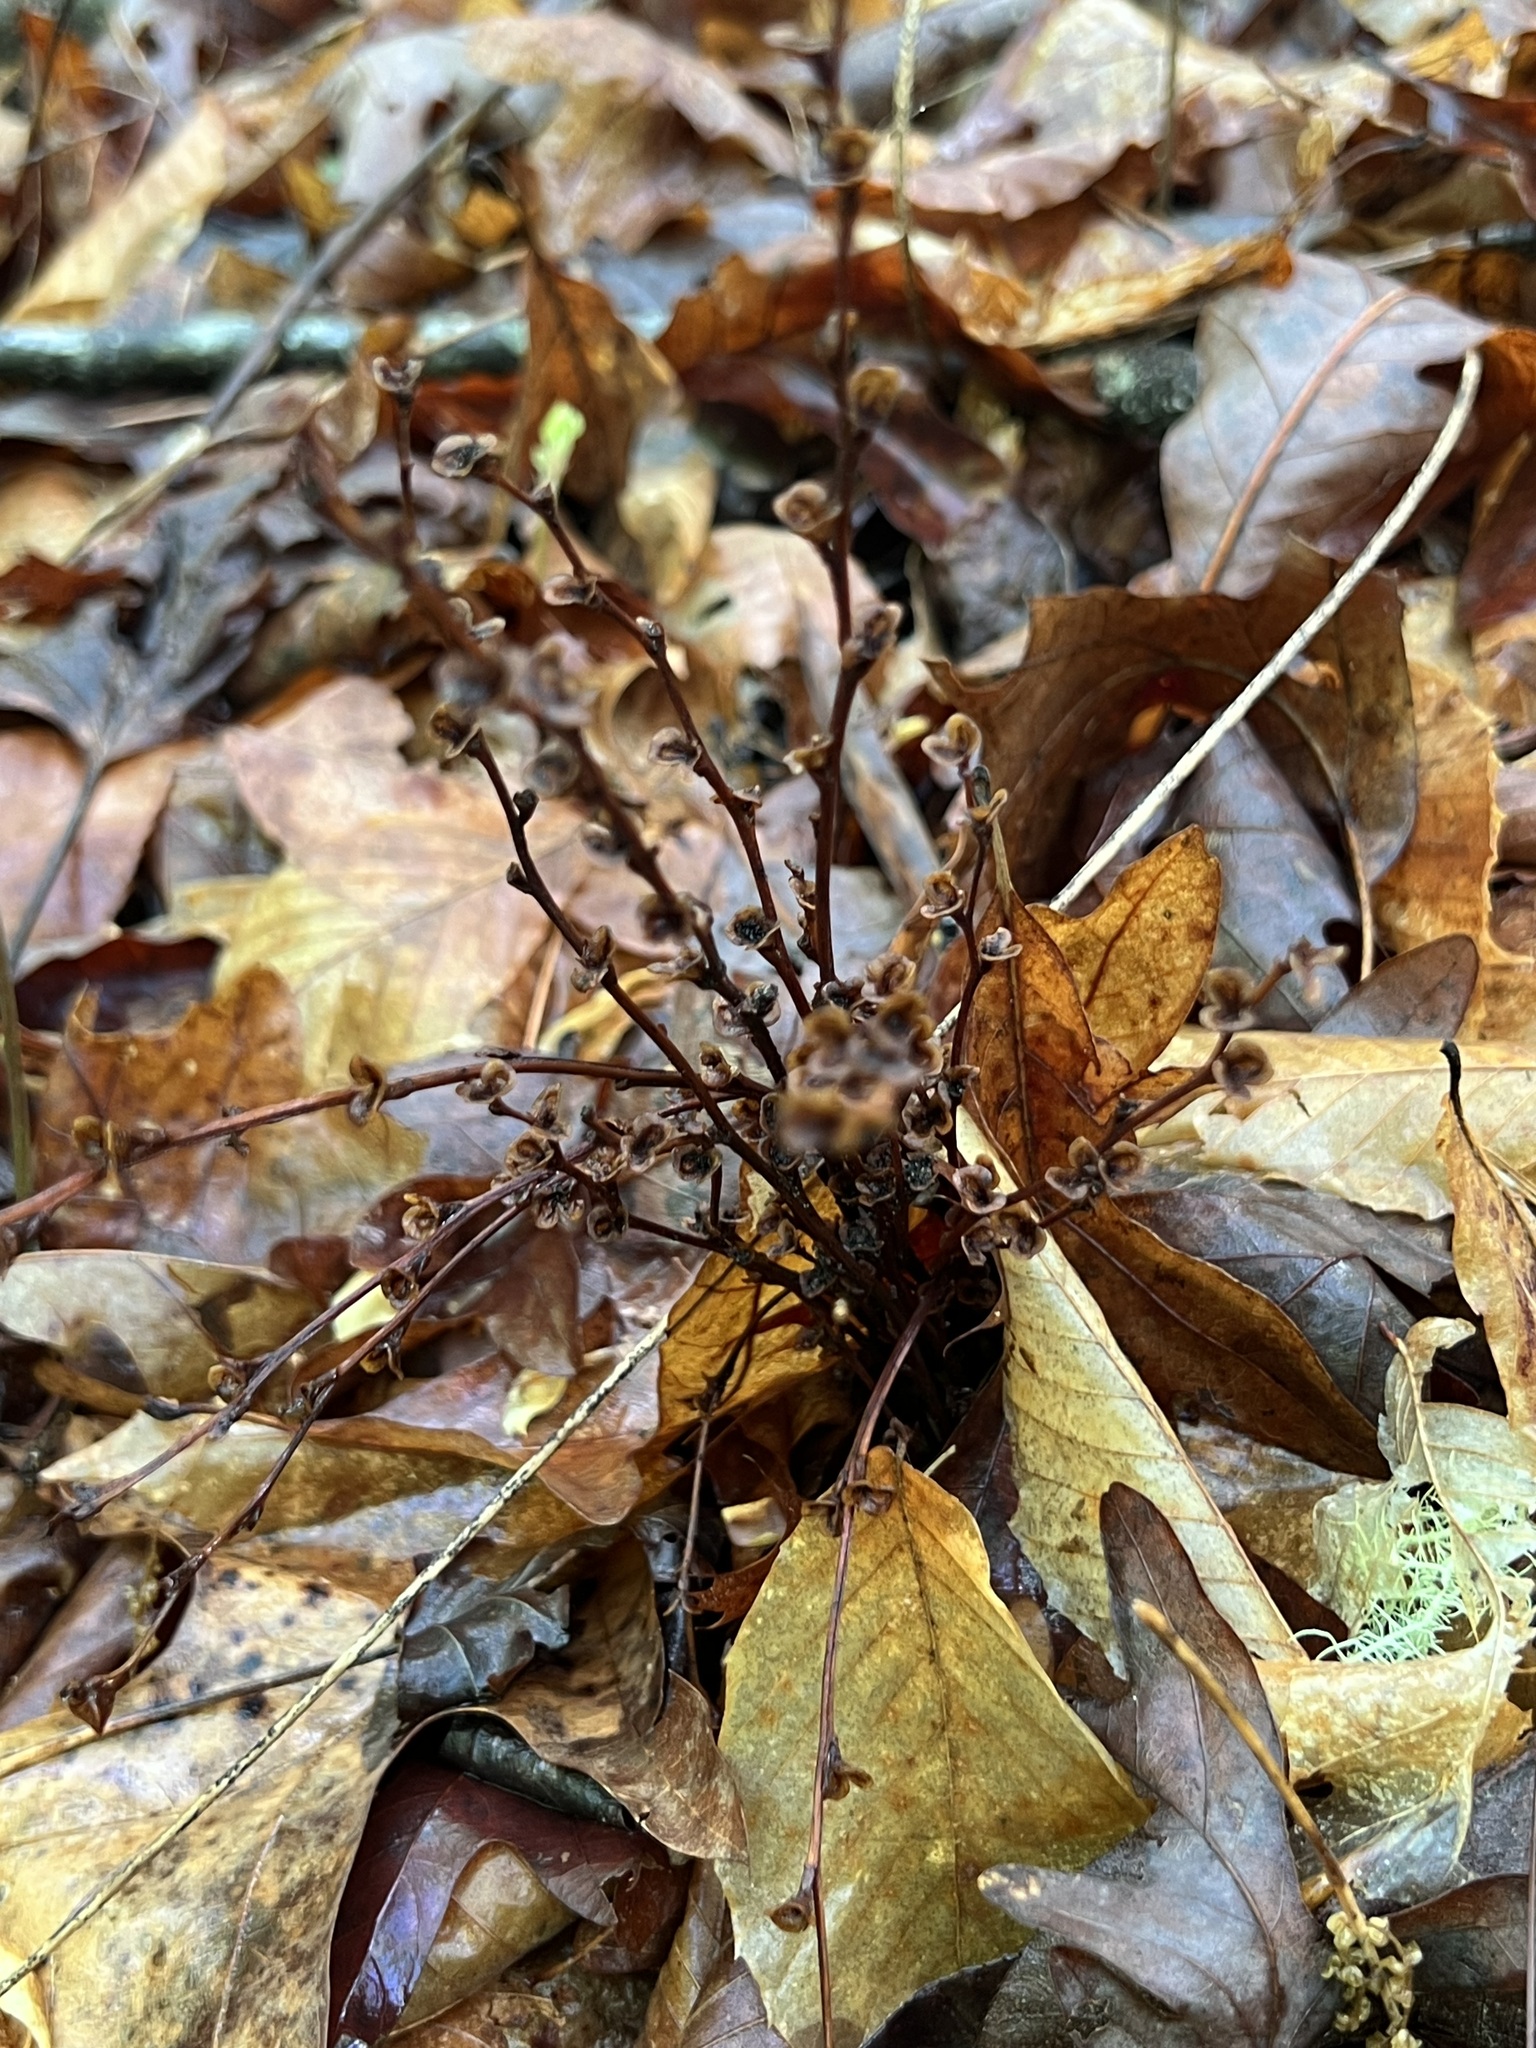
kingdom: Plantae
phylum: Tracheophyta
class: Magnoliopsida
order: Lamiales
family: Orobanchaceae
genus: Epifagus
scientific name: Epifagus virginiana
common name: Beechdrops
